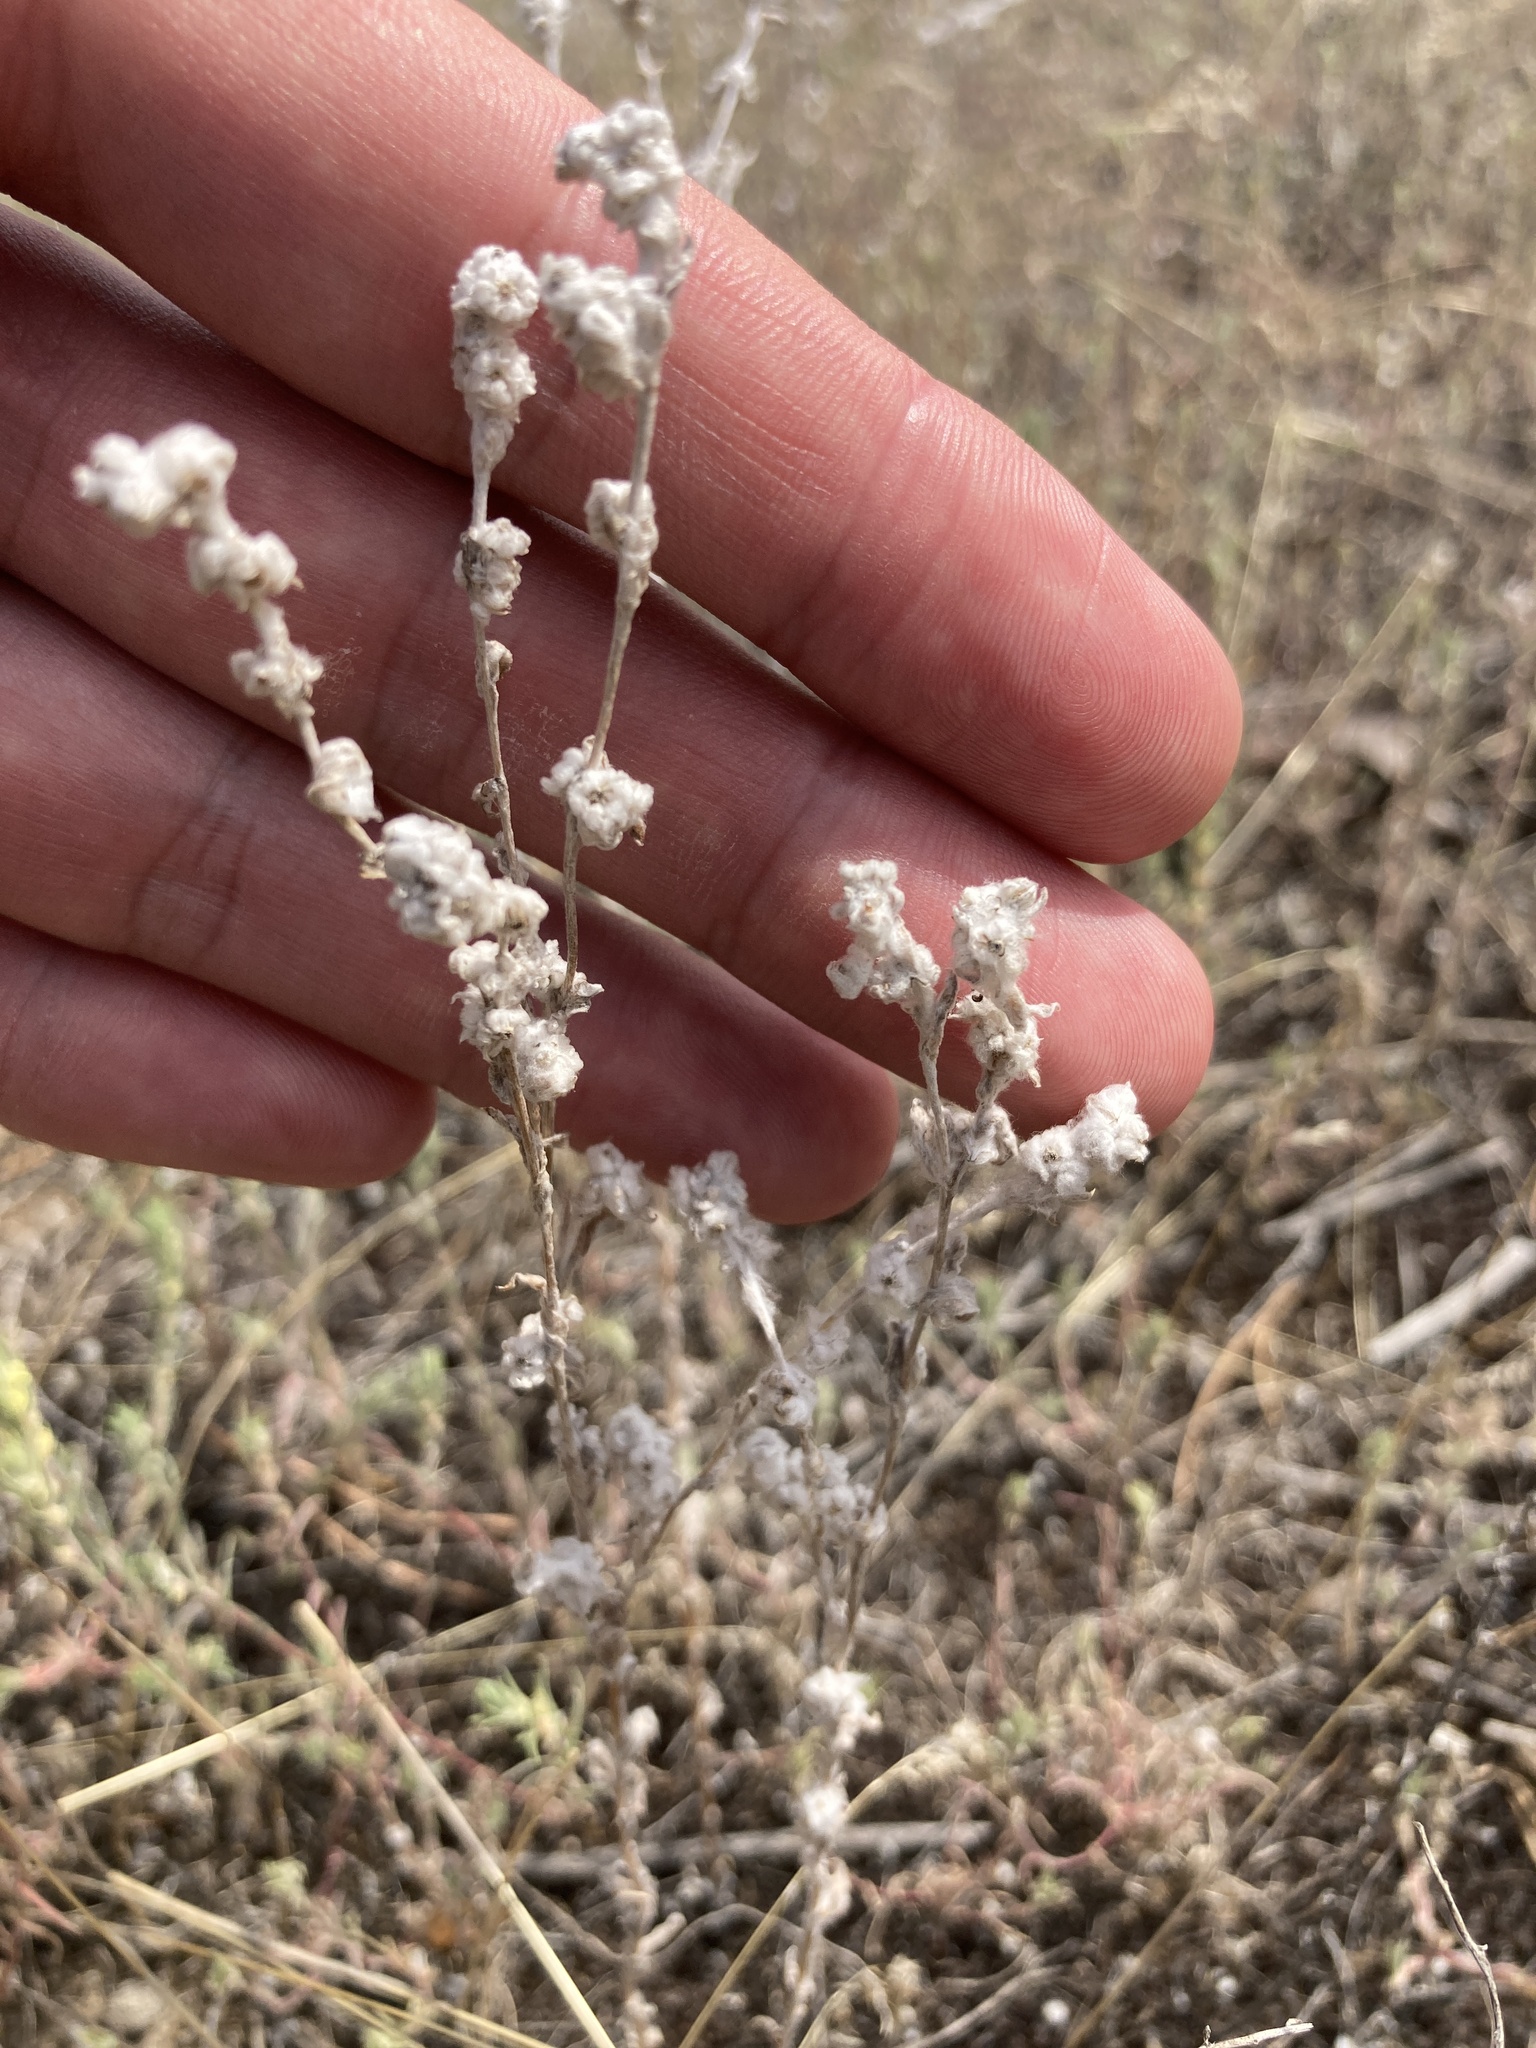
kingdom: Plantae
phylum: Tracheophyta
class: Magnoliopsida
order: Asterales
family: Asteraceae
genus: Filago
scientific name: Filago arvensis
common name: Field cudweed
